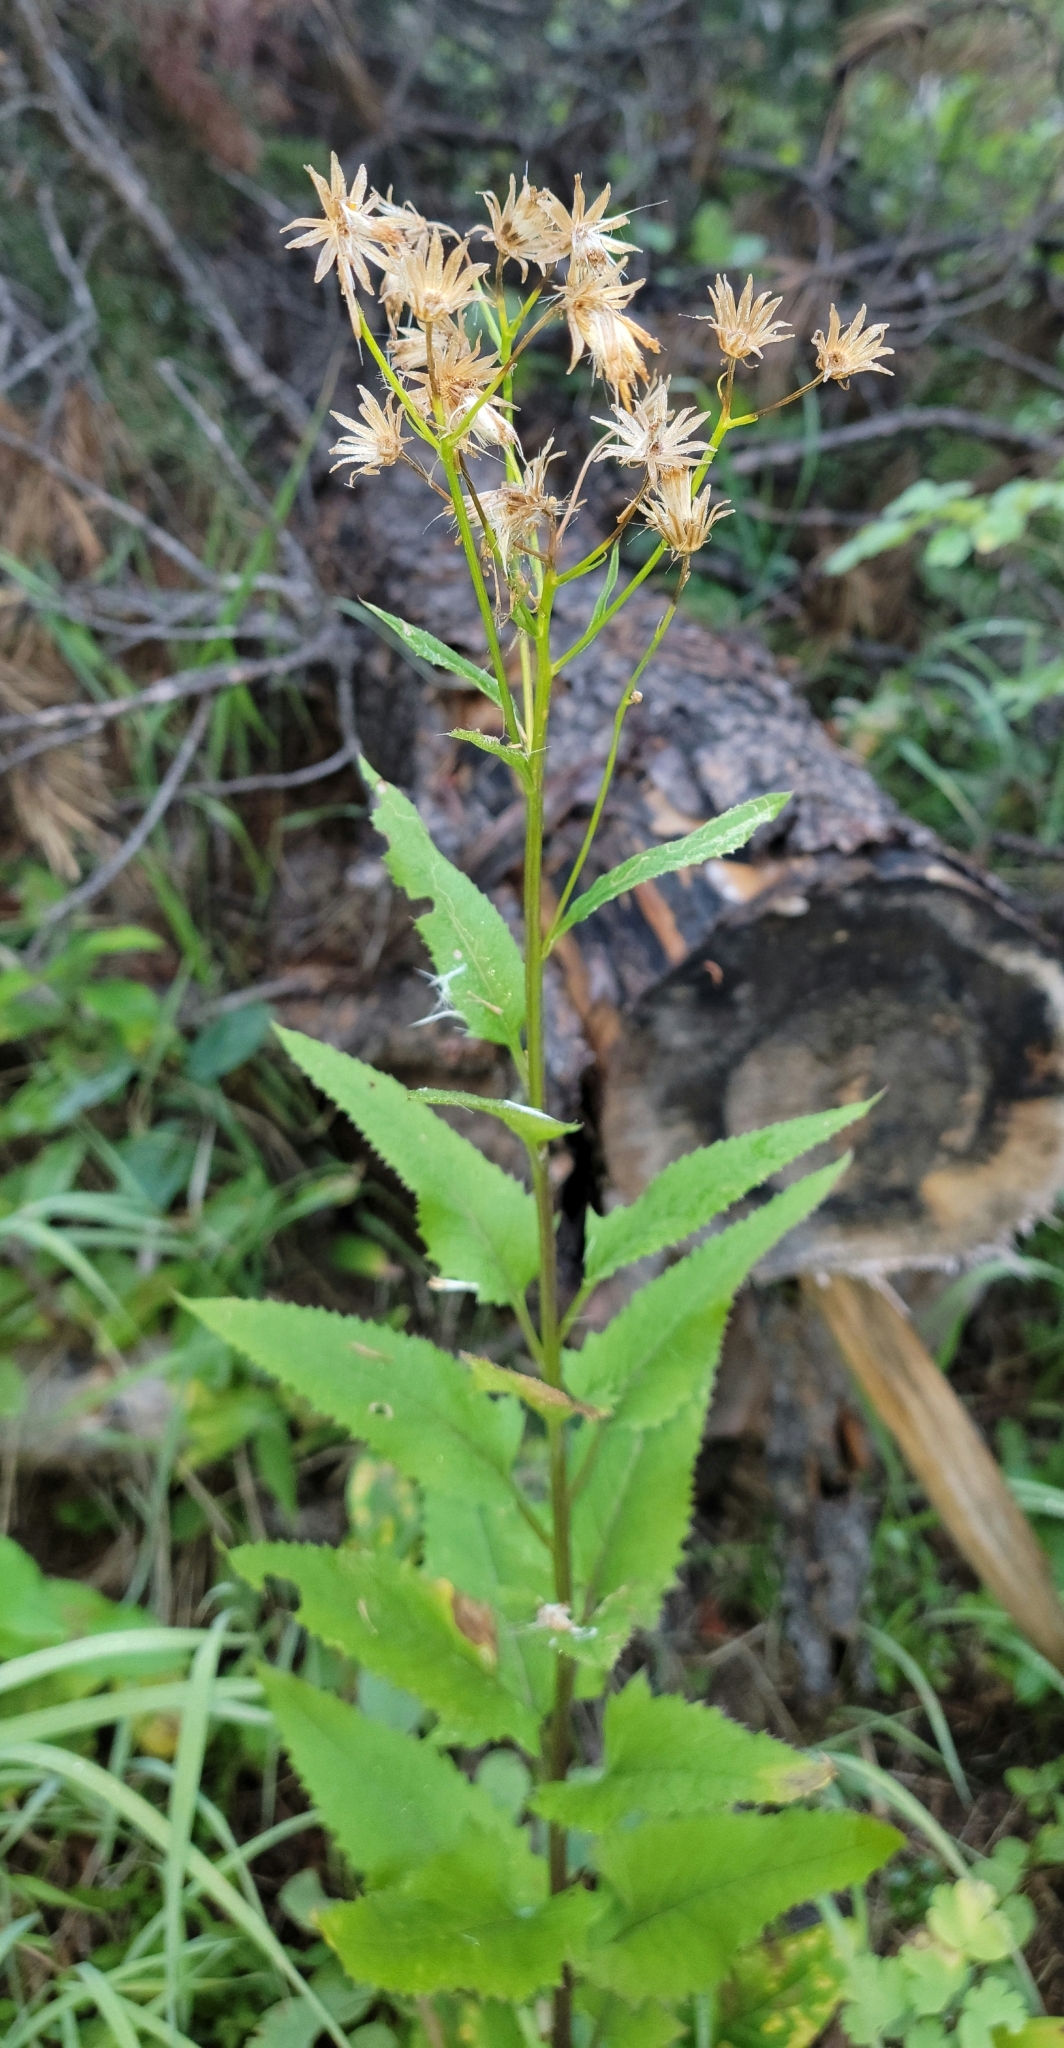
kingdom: Plantae
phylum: Tracheophyta
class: Magnoliopsida
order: Asterales
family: Asteraceae
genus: Senecio
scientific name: Senecio triangularis
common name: Arrowleaf butterweed
